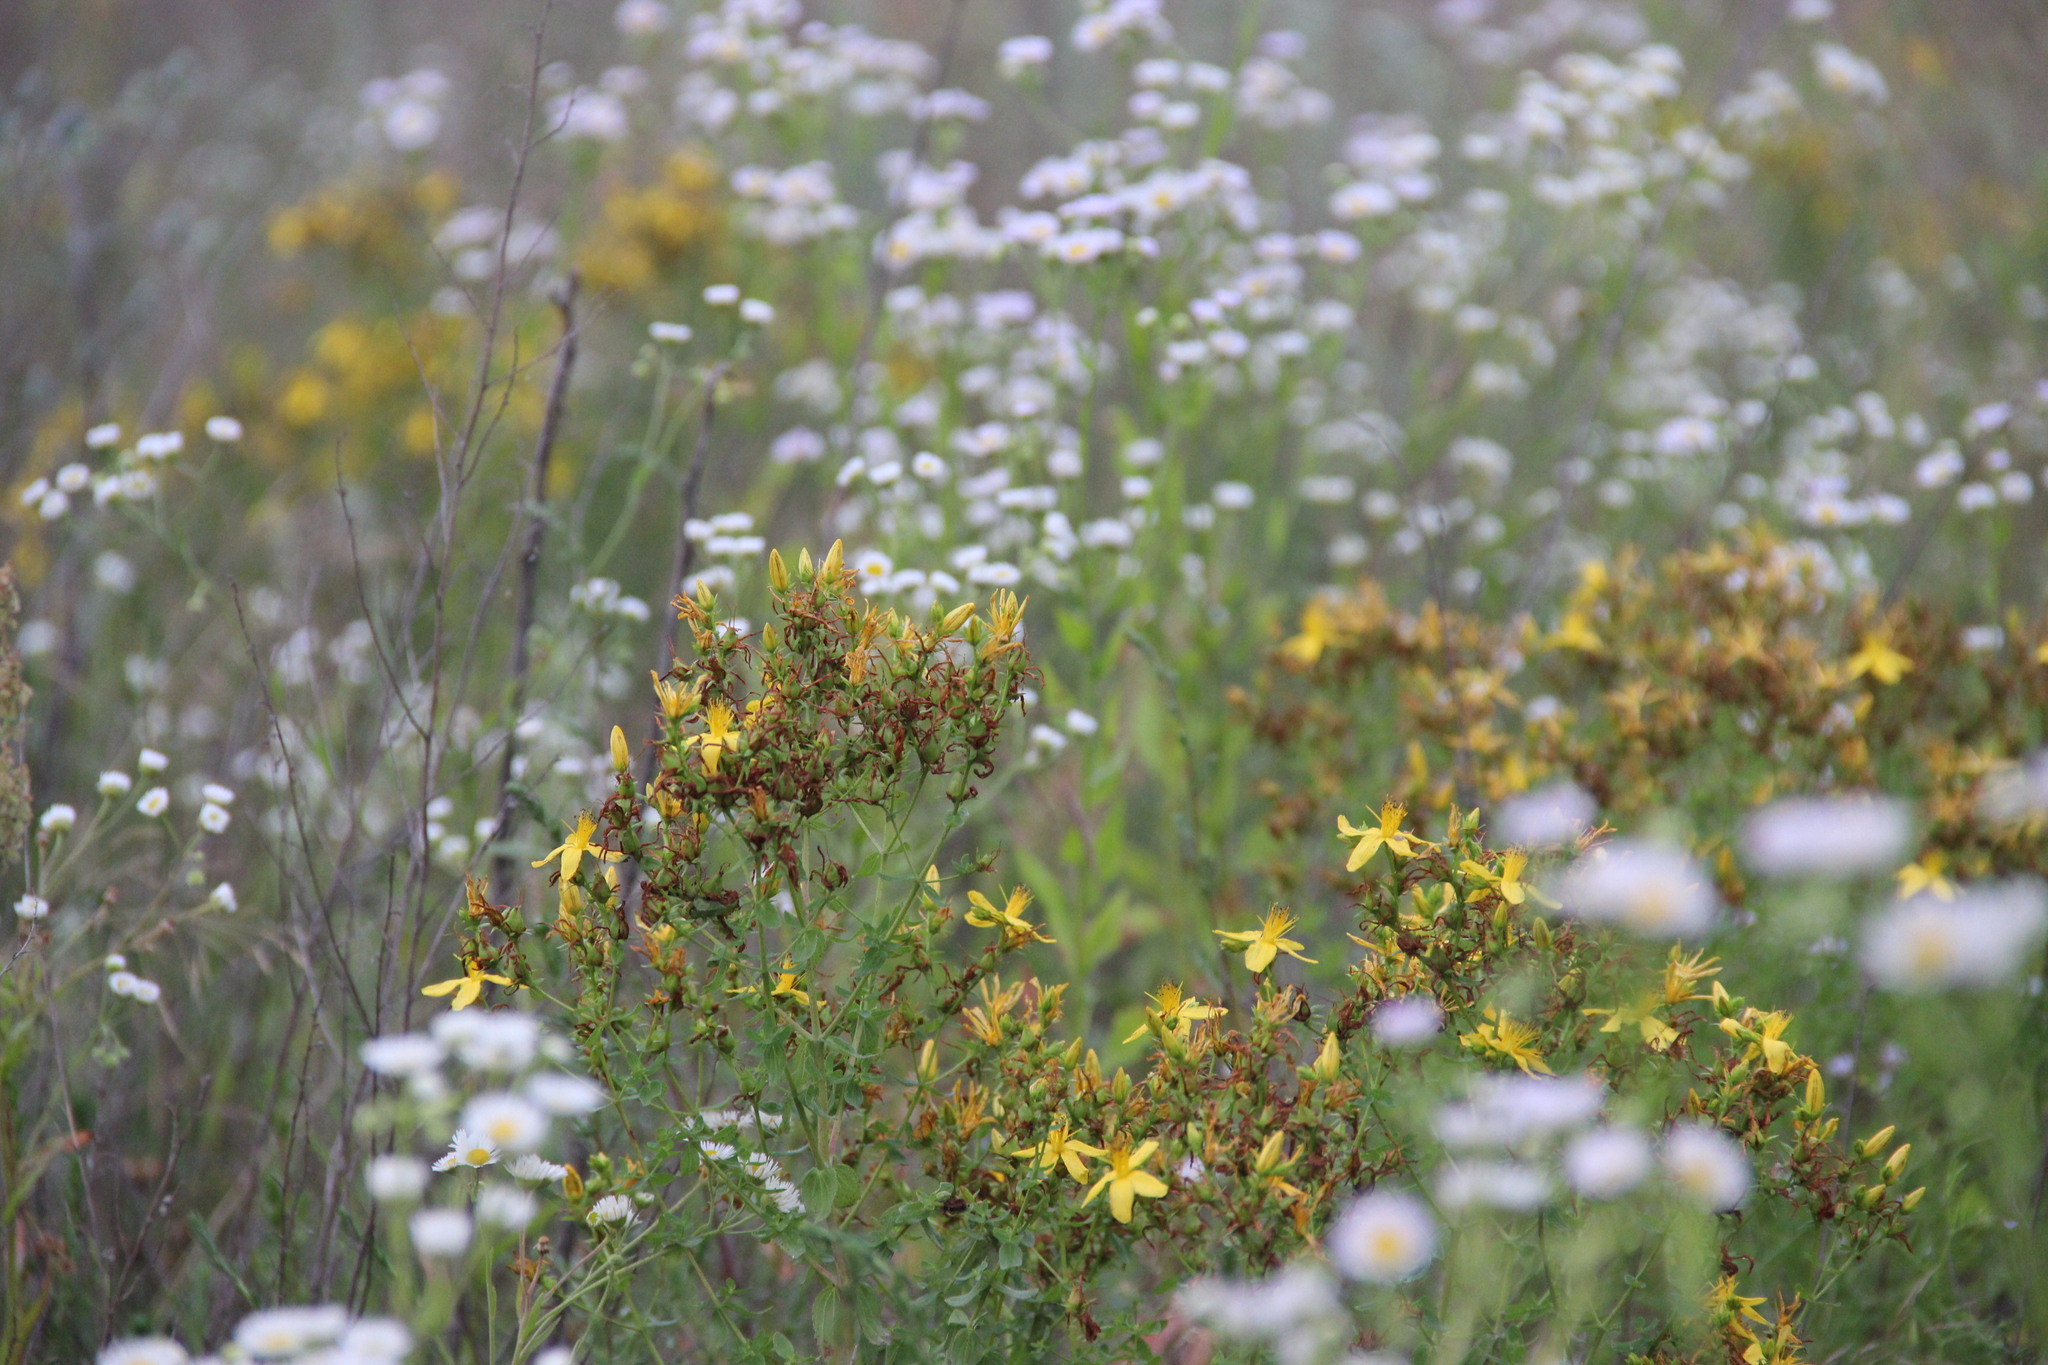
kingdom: Plantae
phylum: Tracheophyta
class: Magnoliopsida
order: Malpighiales
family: Hypericaceae
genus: Hypericum
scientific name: Hypericum perforatum
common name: Common st. johnswort
